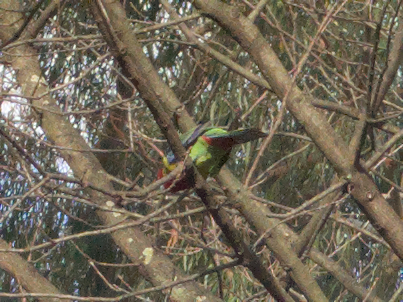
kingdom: Animalia
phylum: Chordata
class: Aves
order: Psittaciformes
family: Psittacidae
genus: Platycercus
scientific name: Platycercus eximius
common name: Eastern rosella
